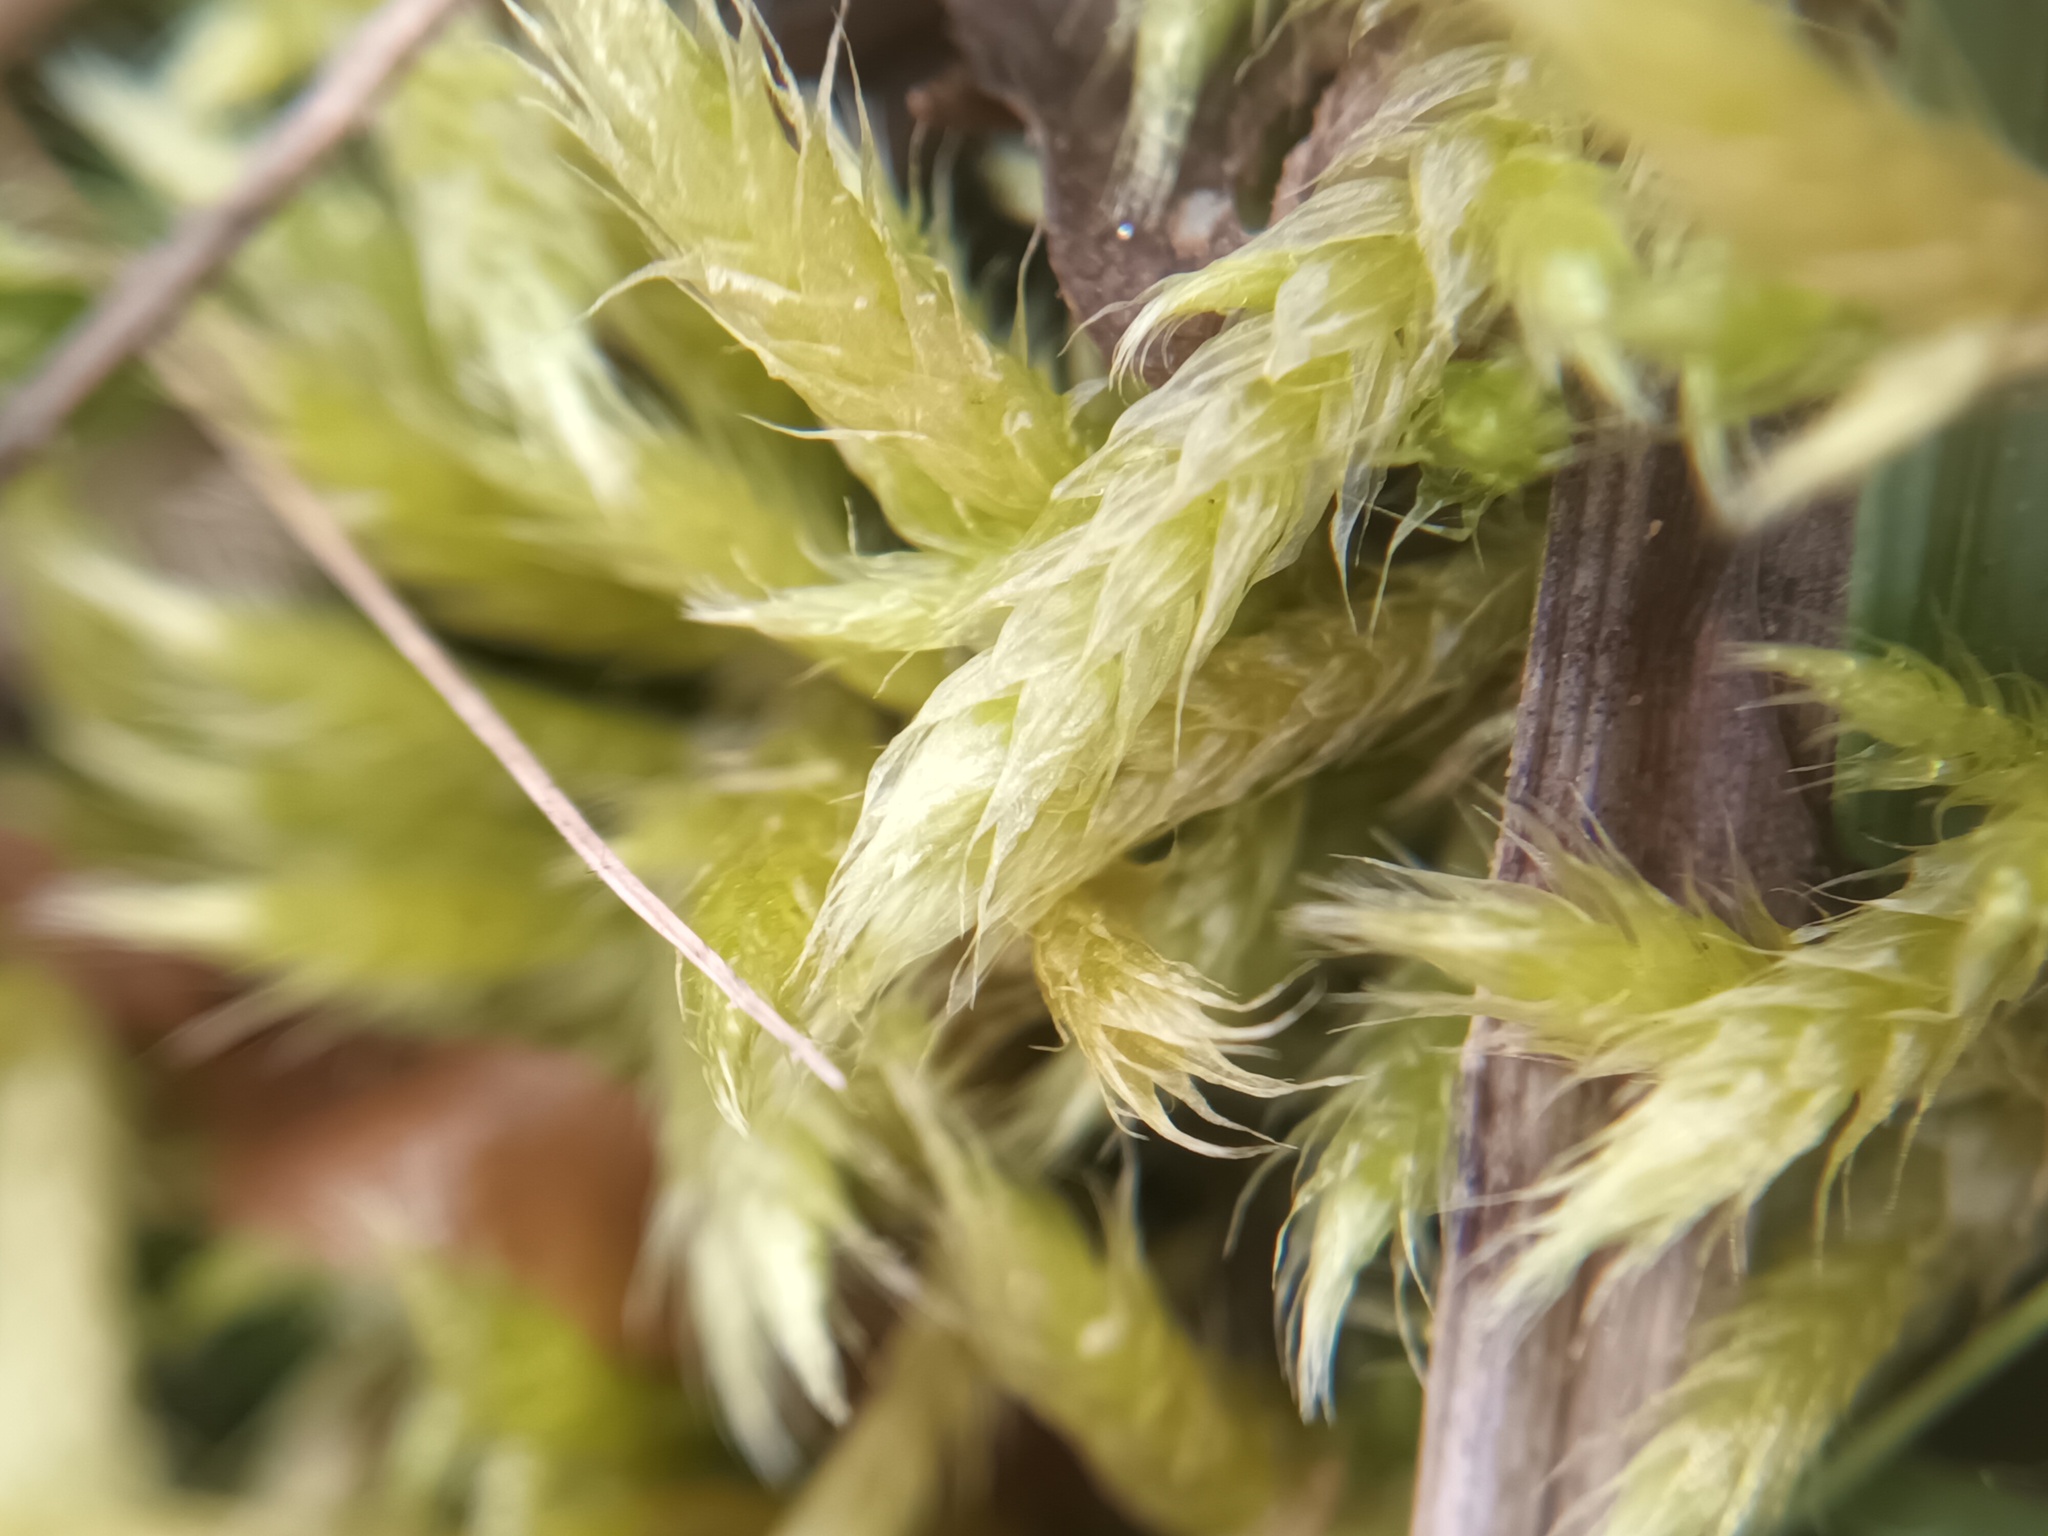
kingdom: Plantae
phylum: Bryophyta
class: Bryopsida
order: Hypnales
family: Brachytheciaceae
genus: Brachythecium
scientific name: Brachythecium glareosum
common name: Streaky feather-moss
